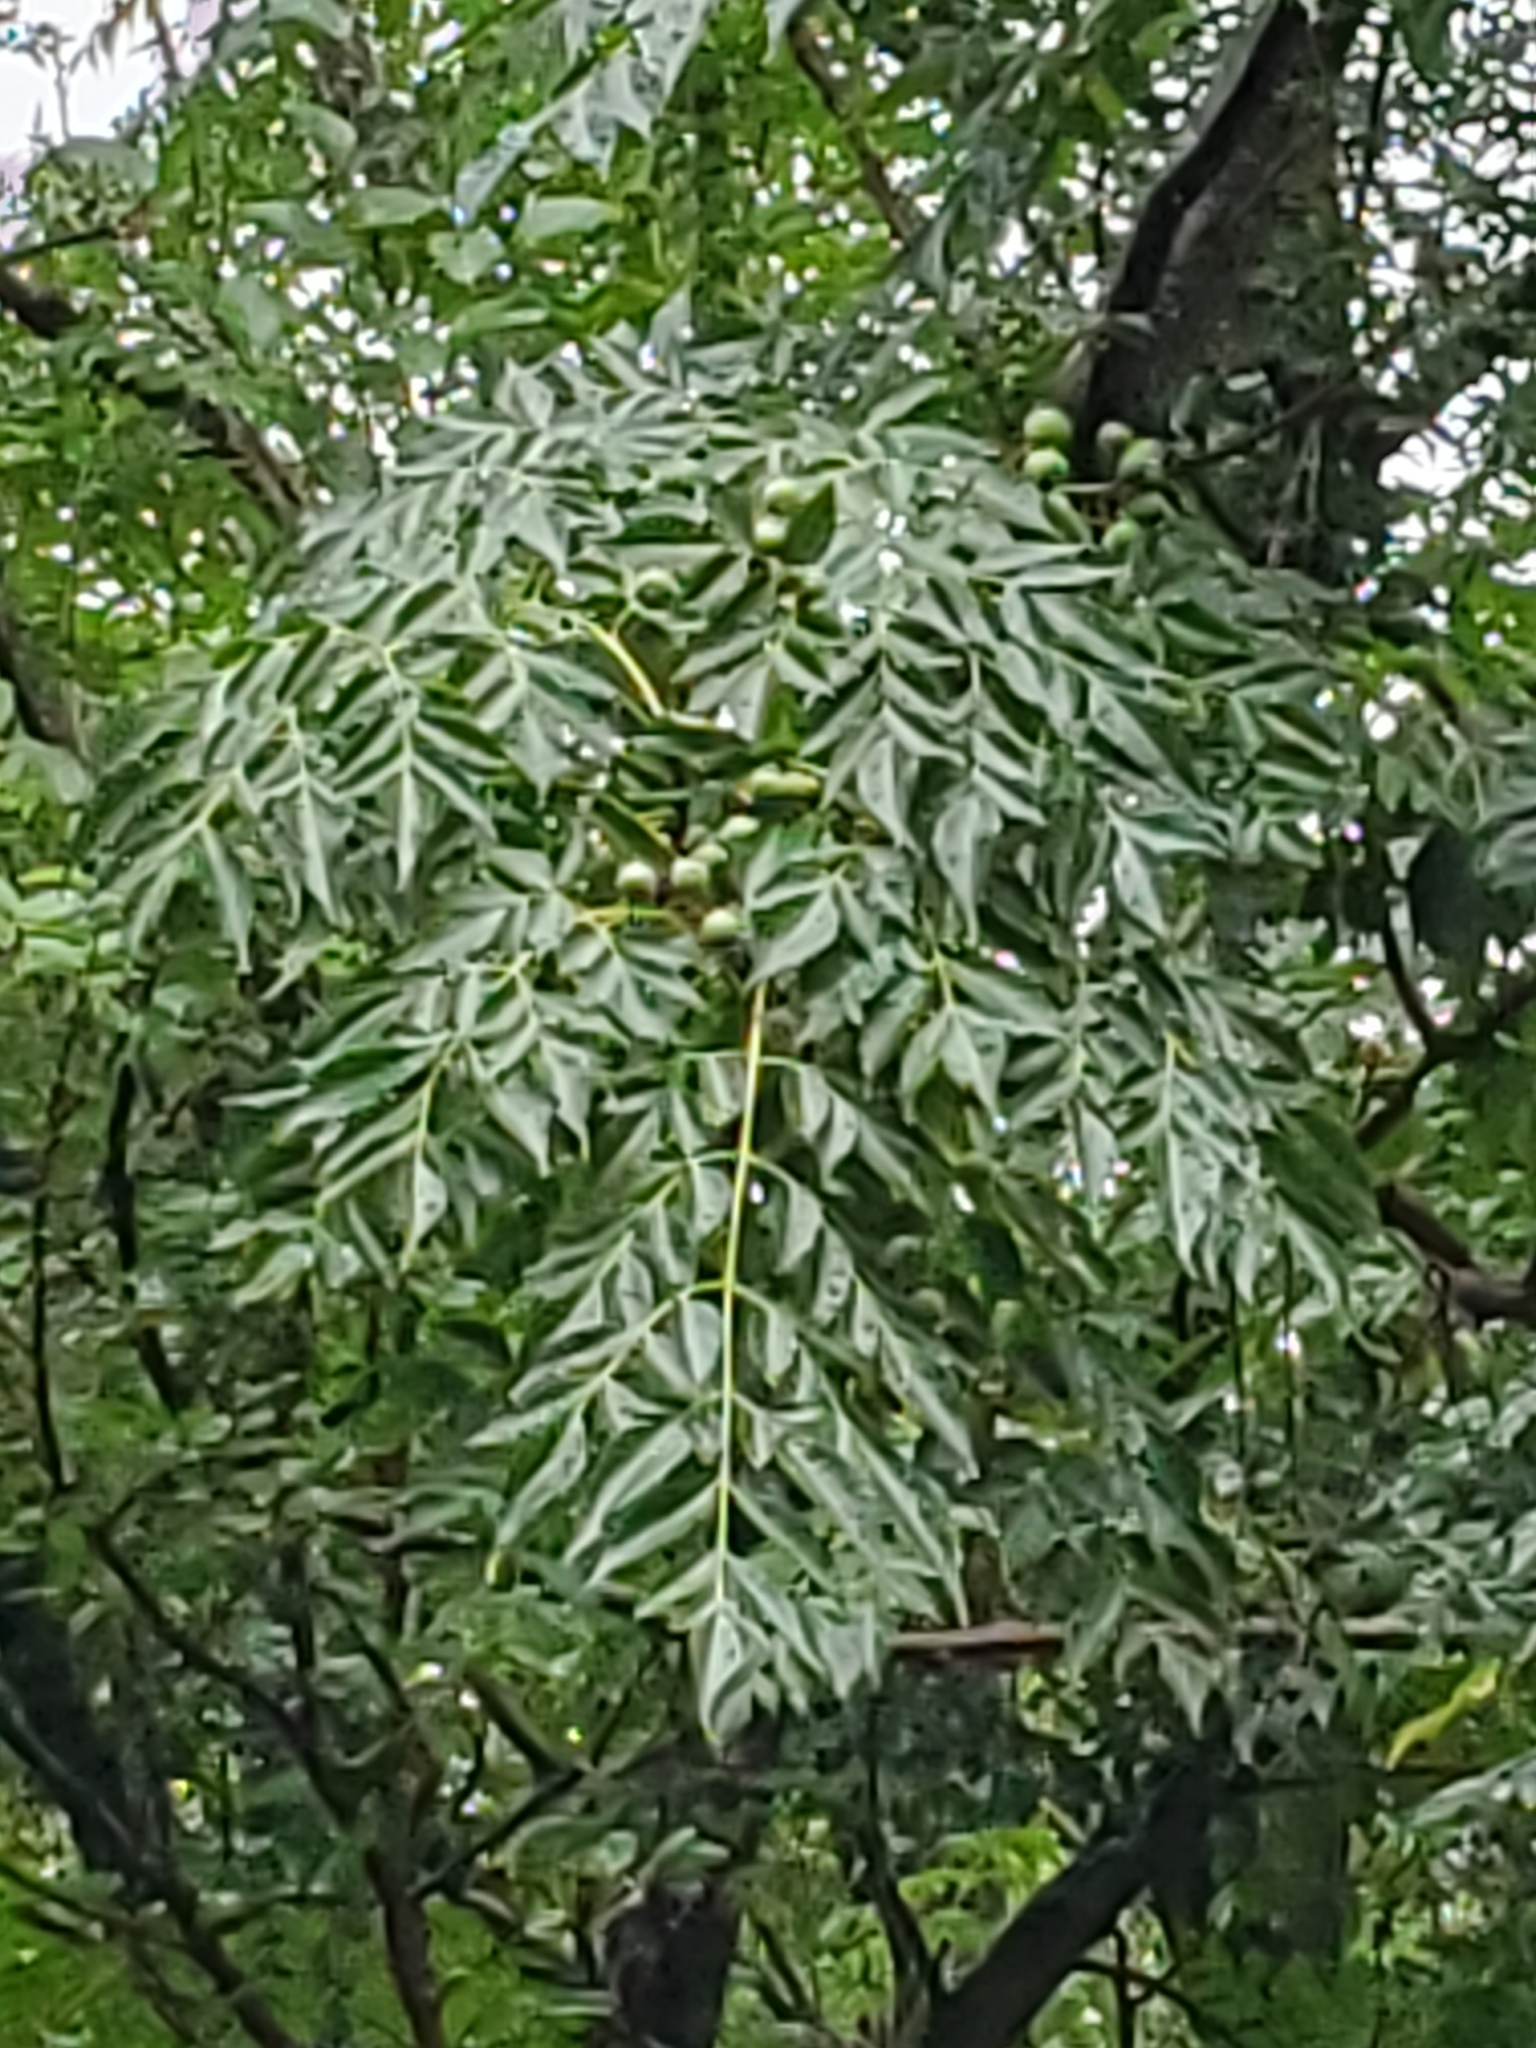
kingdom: Plantae
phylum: Tracheophyta
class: Magnoliopsida
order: Sapindales
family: Meliaceae
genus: Melia
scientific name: Melia azedarach
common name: Chinaberrytree
